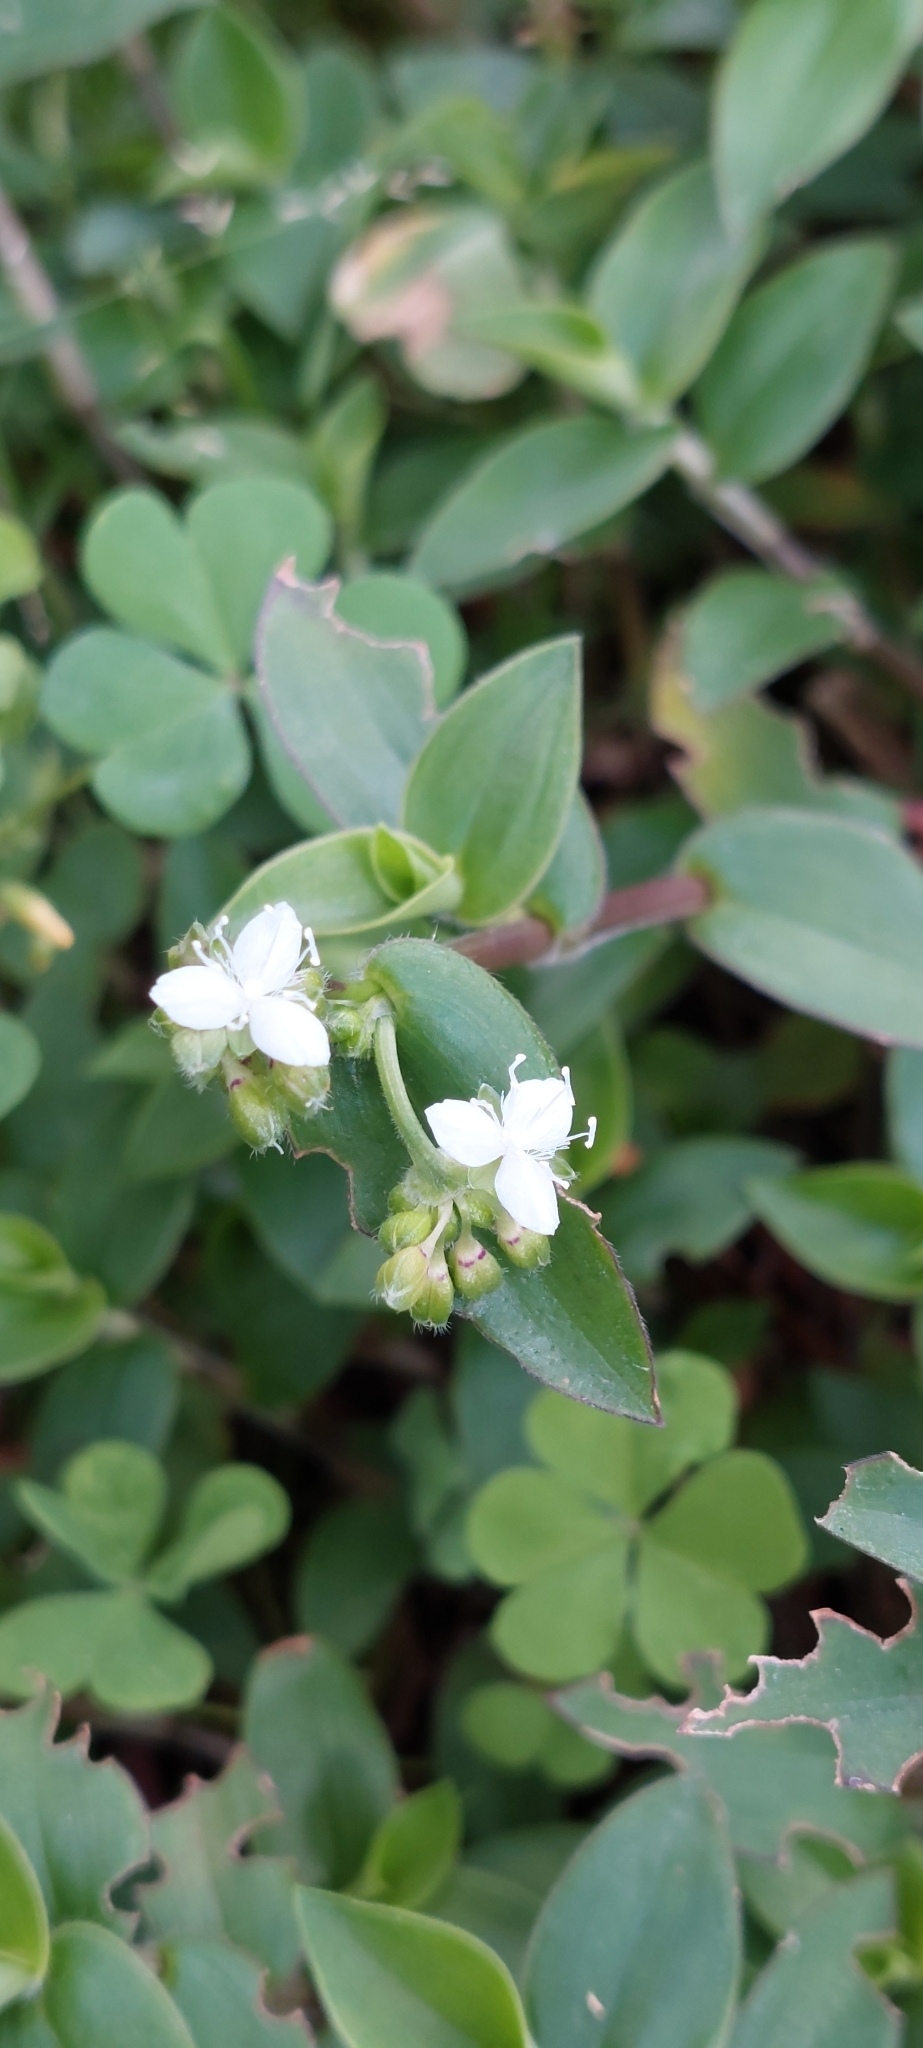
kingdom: Plantae
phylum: Tracheophyta
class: Liliopsida
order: Commelinales
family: Commelinaceae
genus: Tradescantia
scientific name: Tradescantia fluminensis
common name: Wandering-jew
